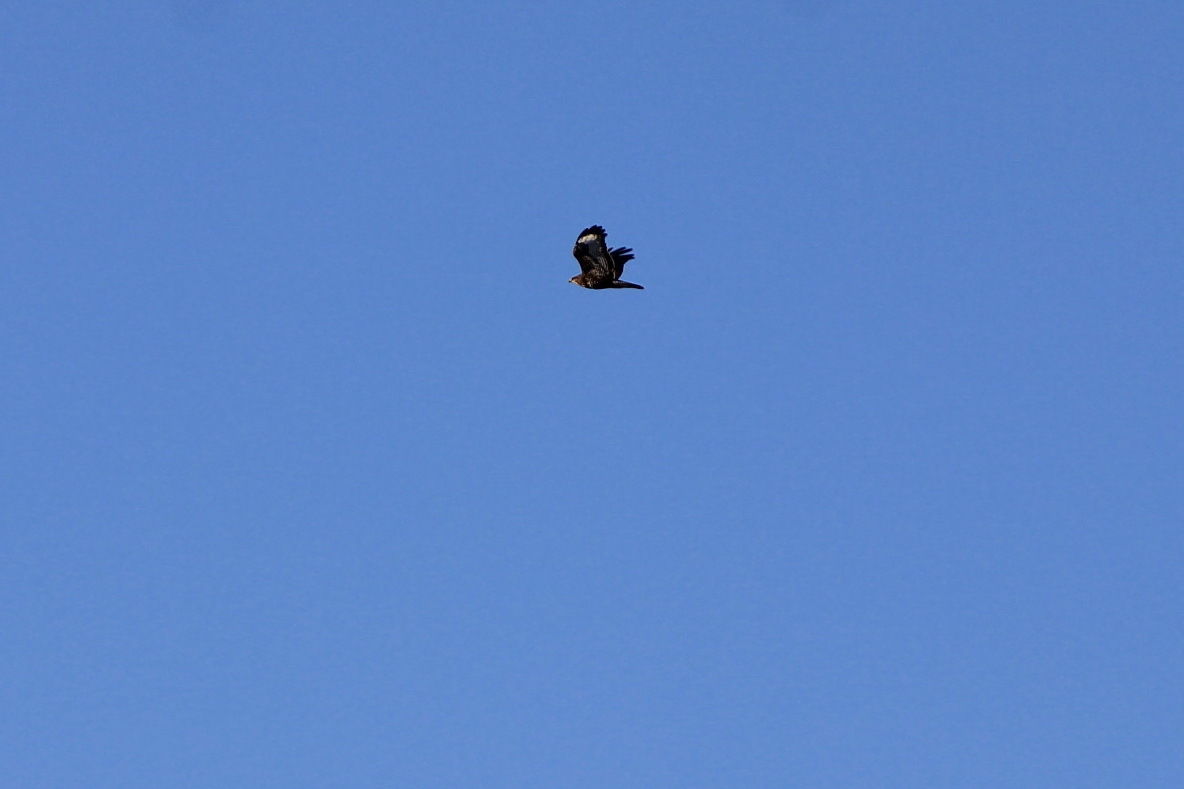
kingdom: Animalia
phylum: Chordata
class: Aves
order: Accipitriformes
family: Accipitridae
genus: Buteo
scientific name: Buteo buteo
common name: Common buzzard
